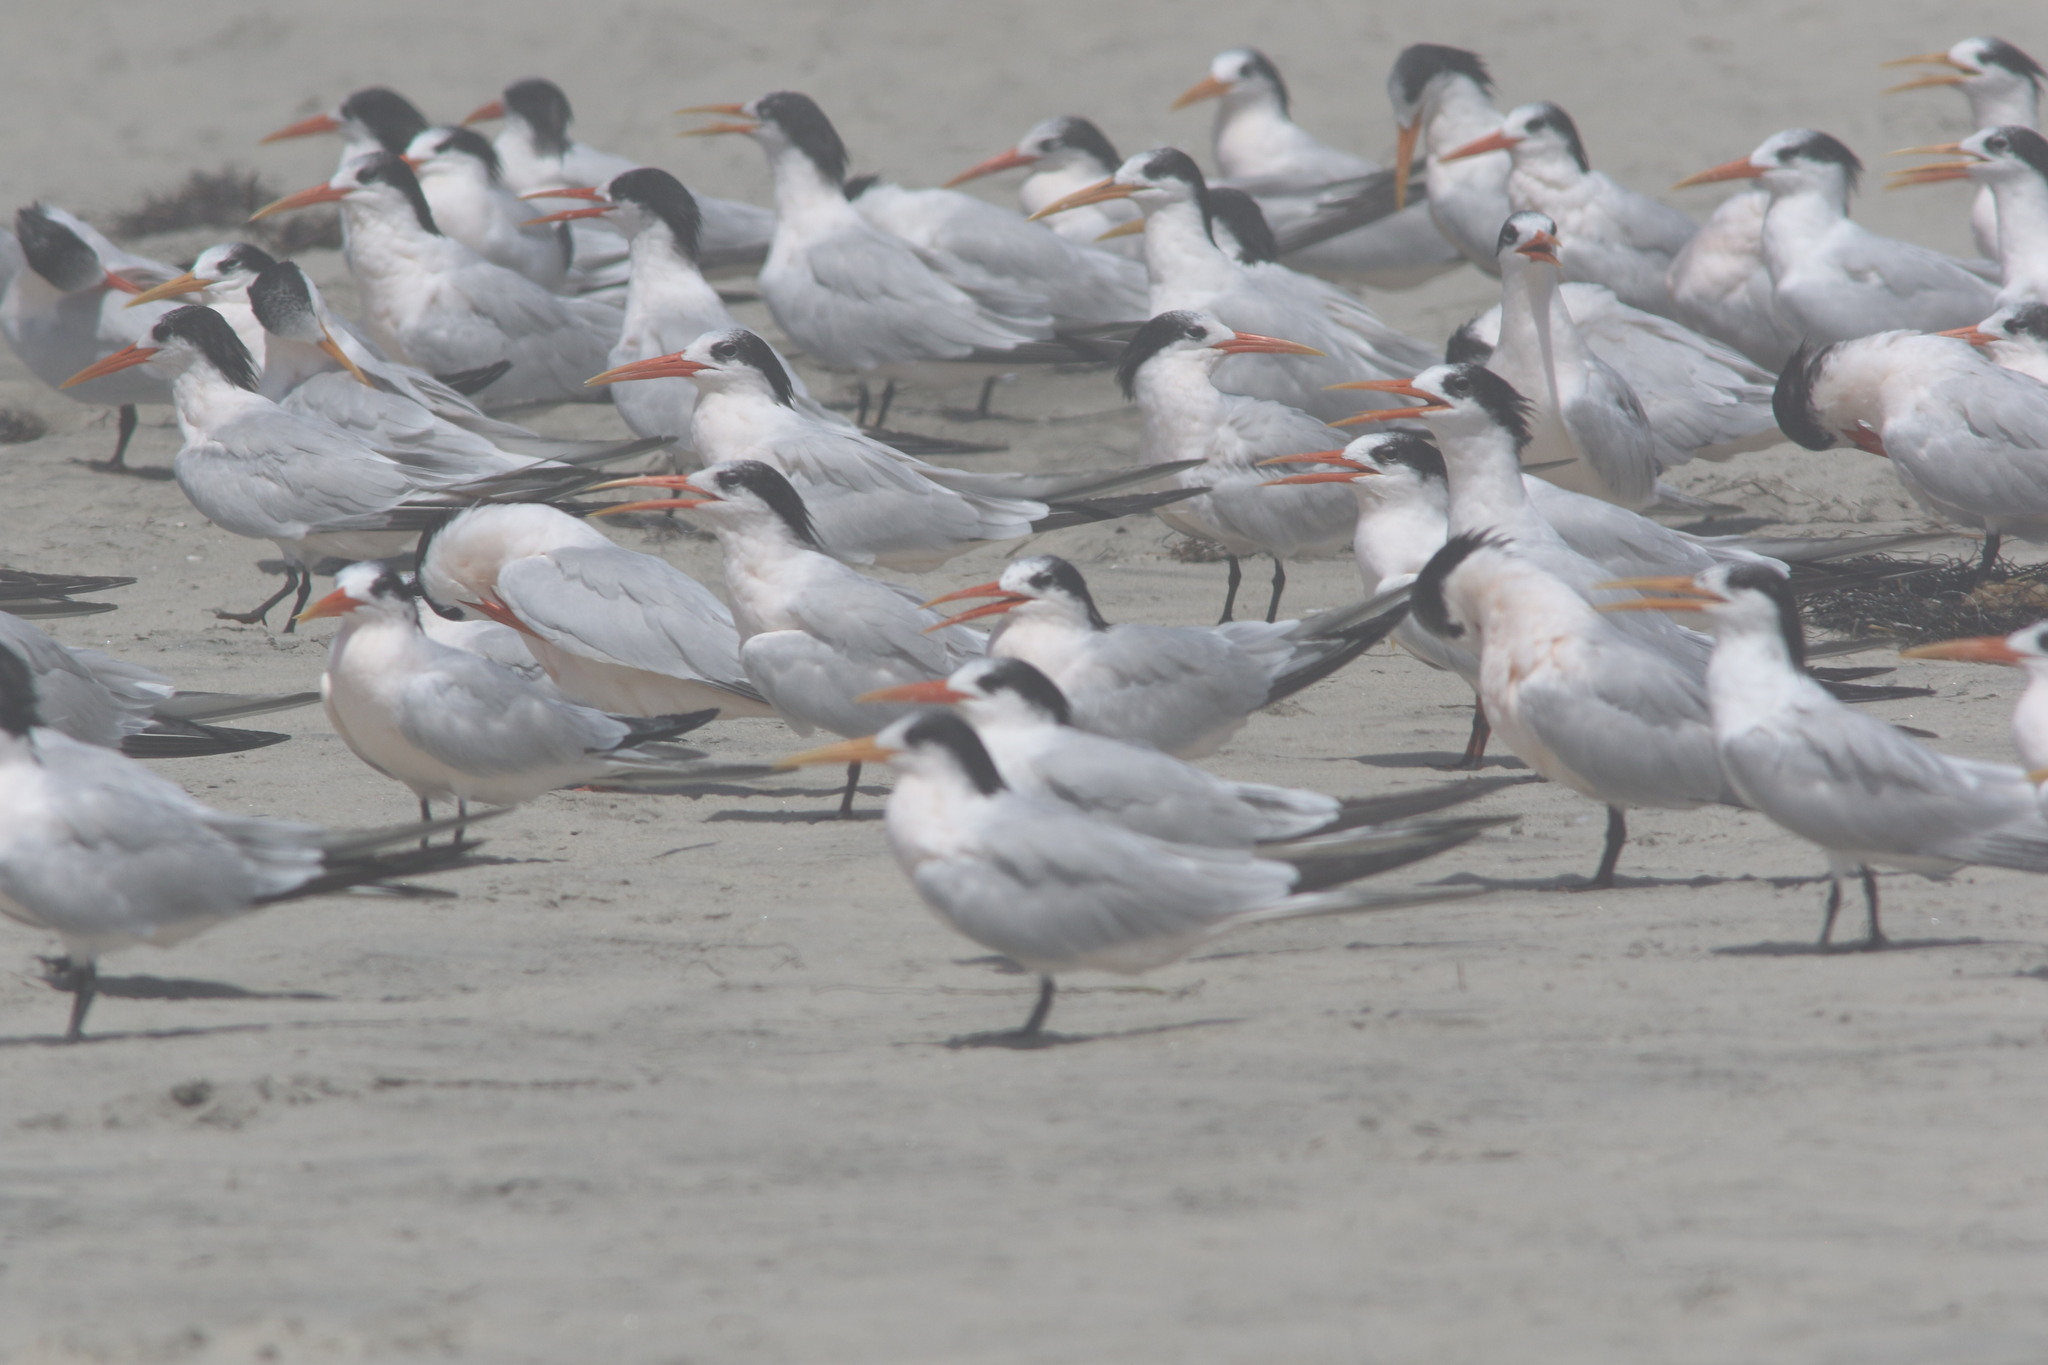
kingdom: Animalia
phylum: Chordata
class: Aves
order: Charadriiformes
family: Laridae
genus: Thalasseus
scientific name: Thalasseus elegans
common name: Elegant tern
